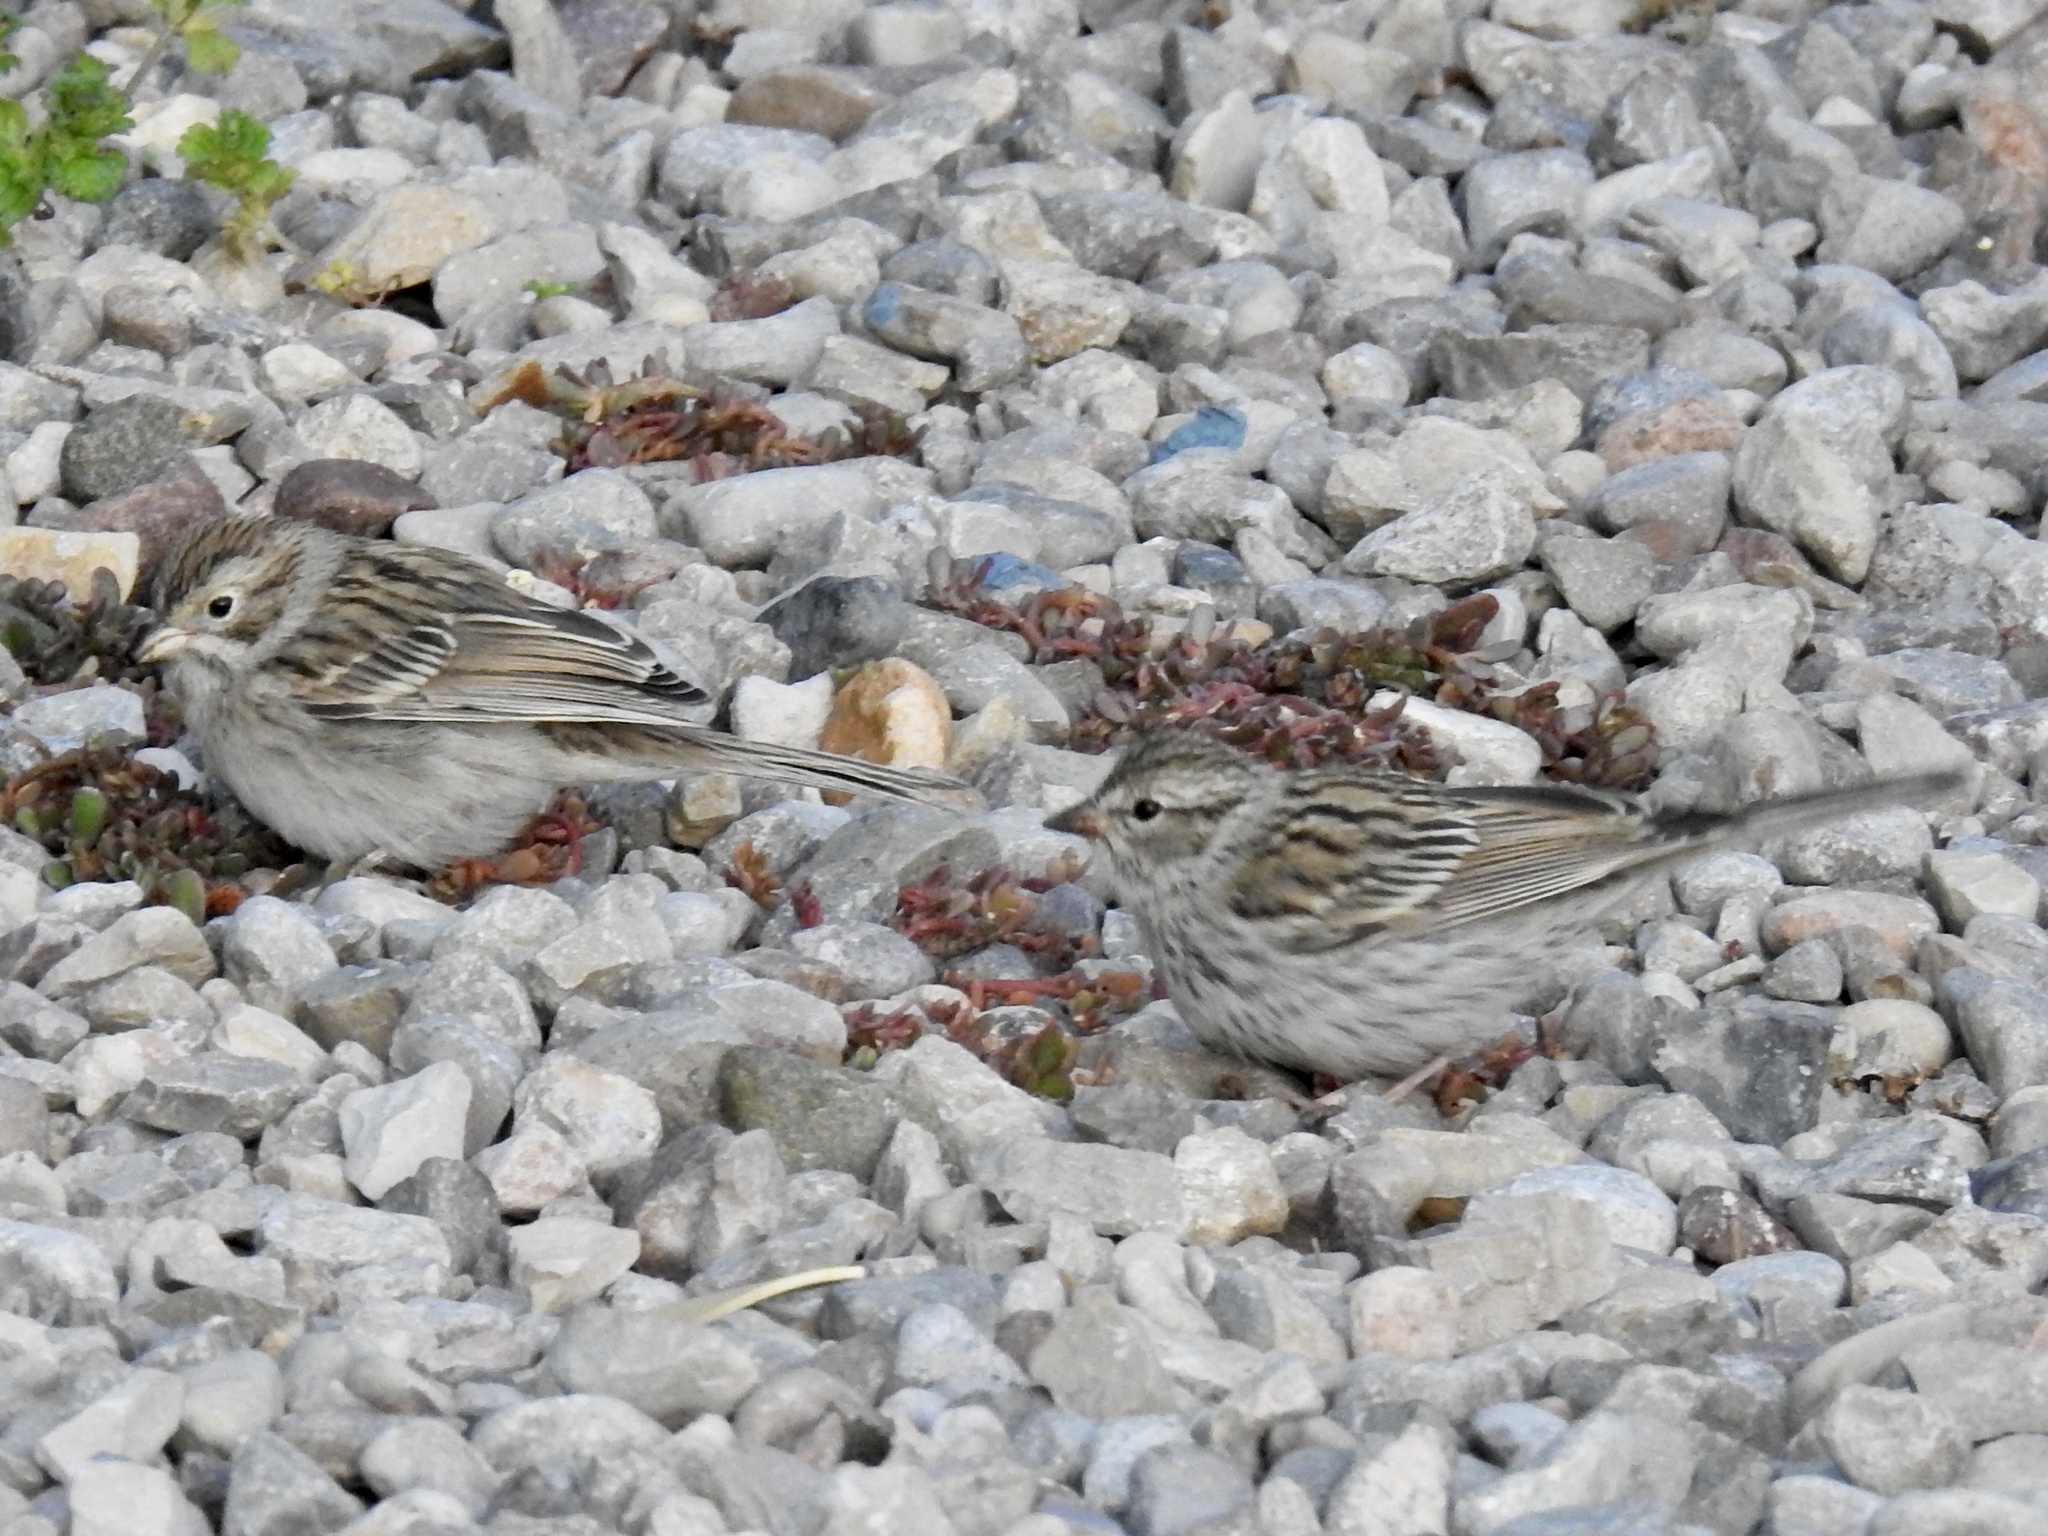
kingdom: Animalia
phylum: Chordata
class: Aves
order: Passeriformes
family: Passerellidae
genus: Spizella
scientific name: Spizella breweri
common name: Brewer's sparrow
